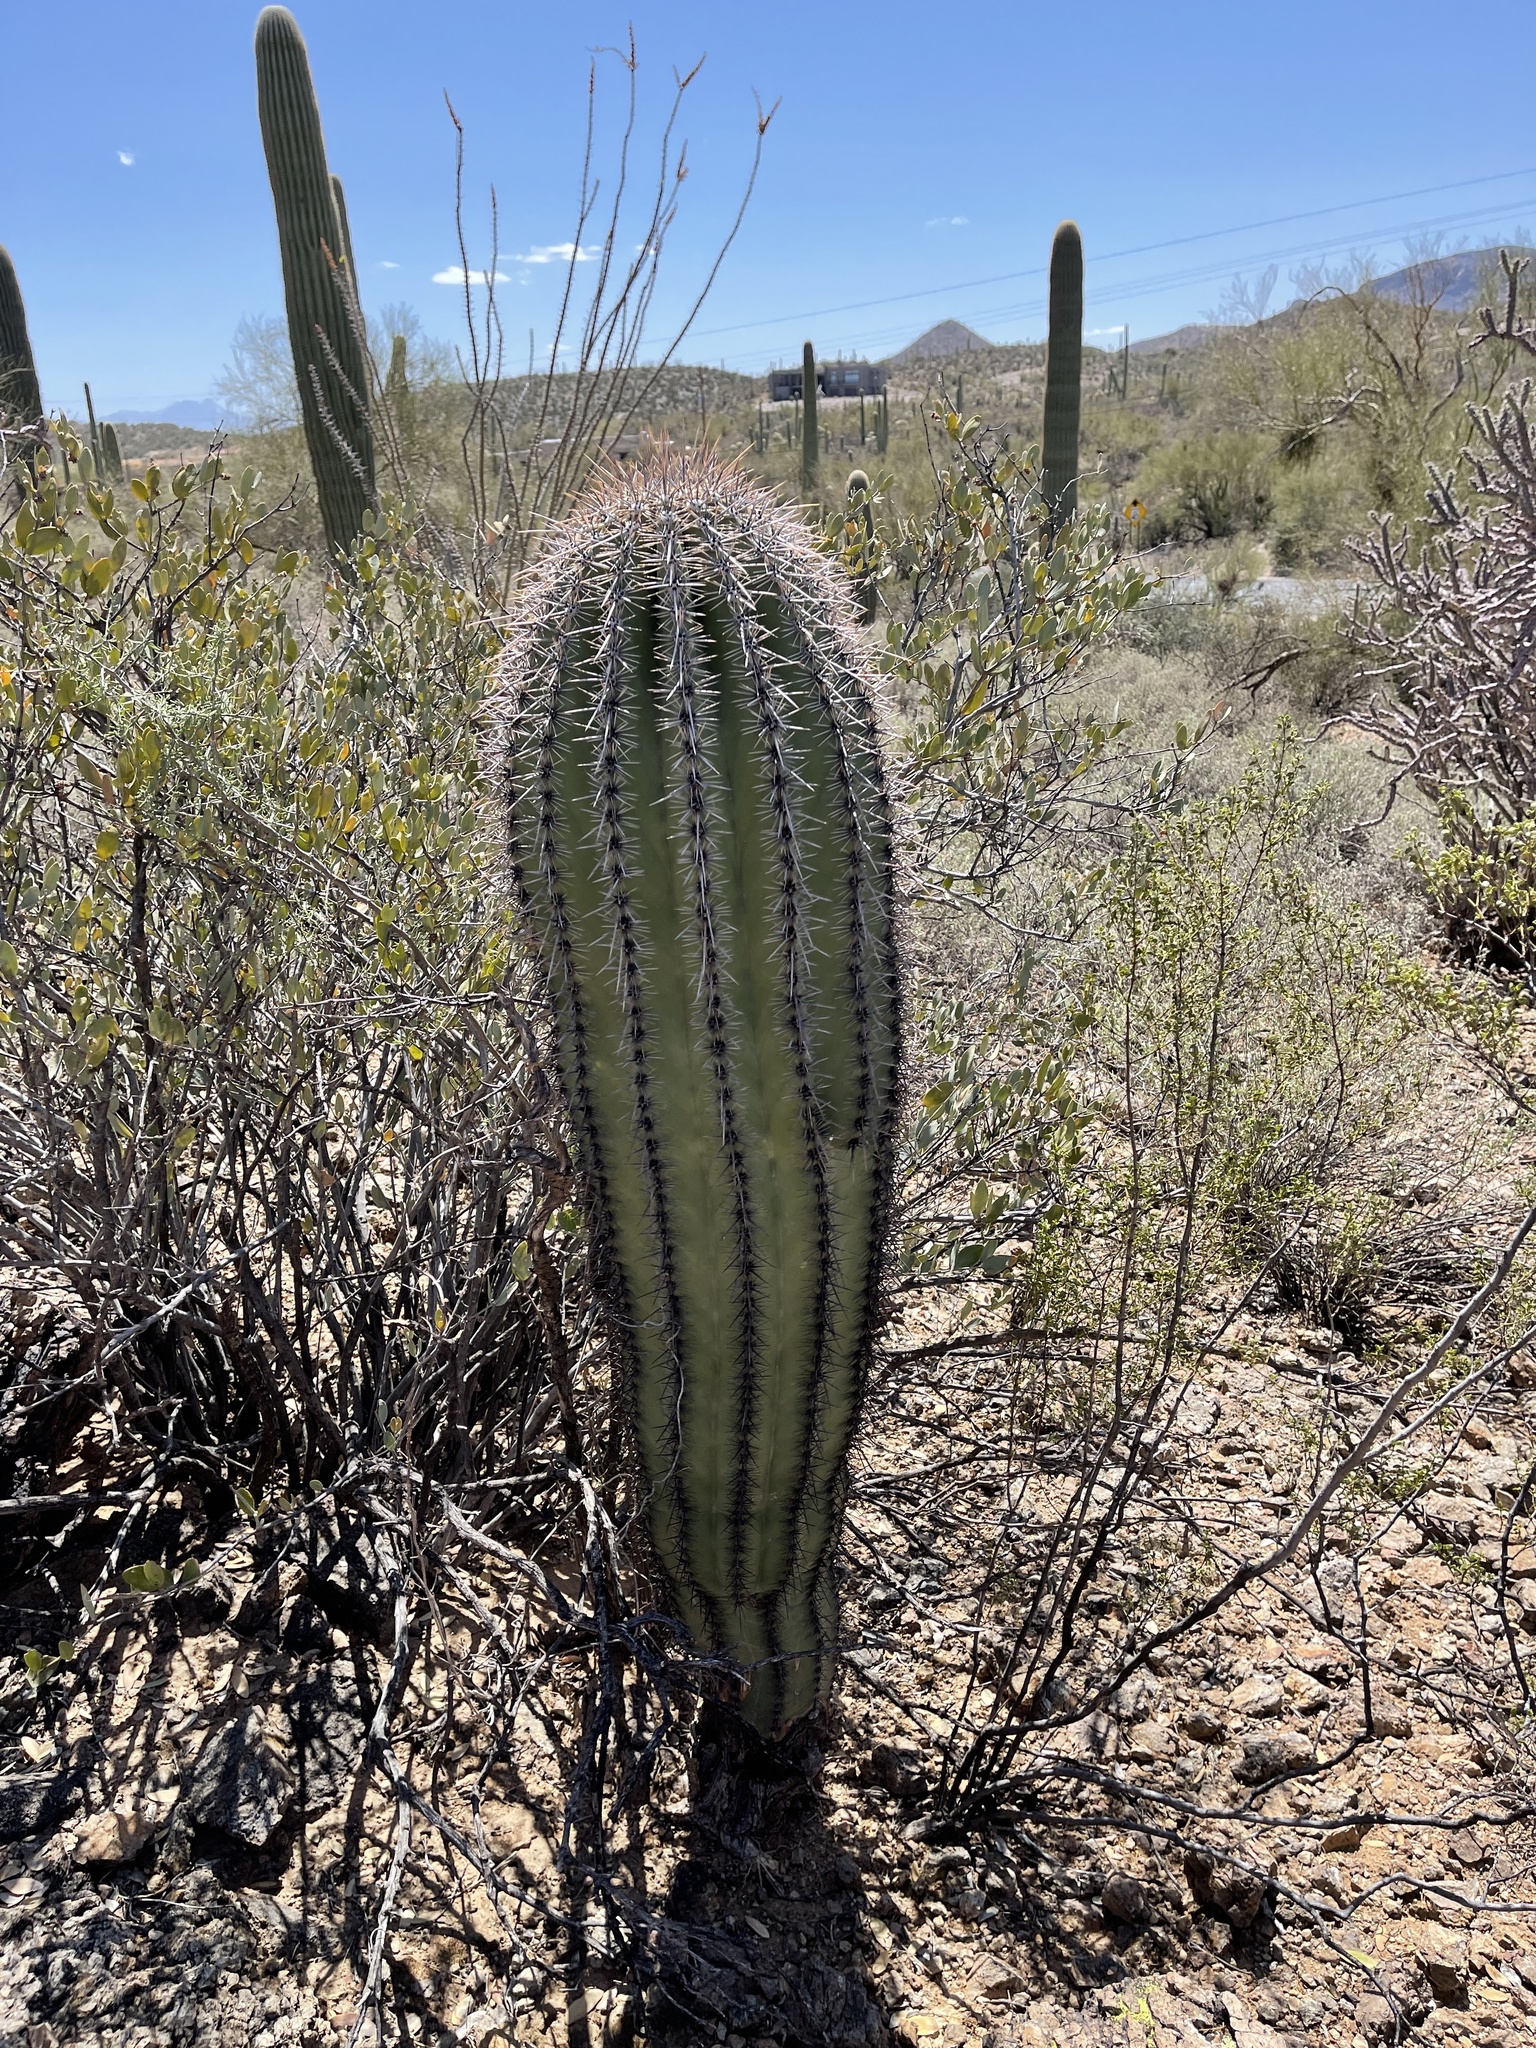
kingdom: Plantae
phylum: Tracheophyta
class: Magnoliopsida
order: Caryophyllales
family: Cactaceae
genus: Carnegiea
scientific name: Carnegiea gigantea
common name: Saguaro
